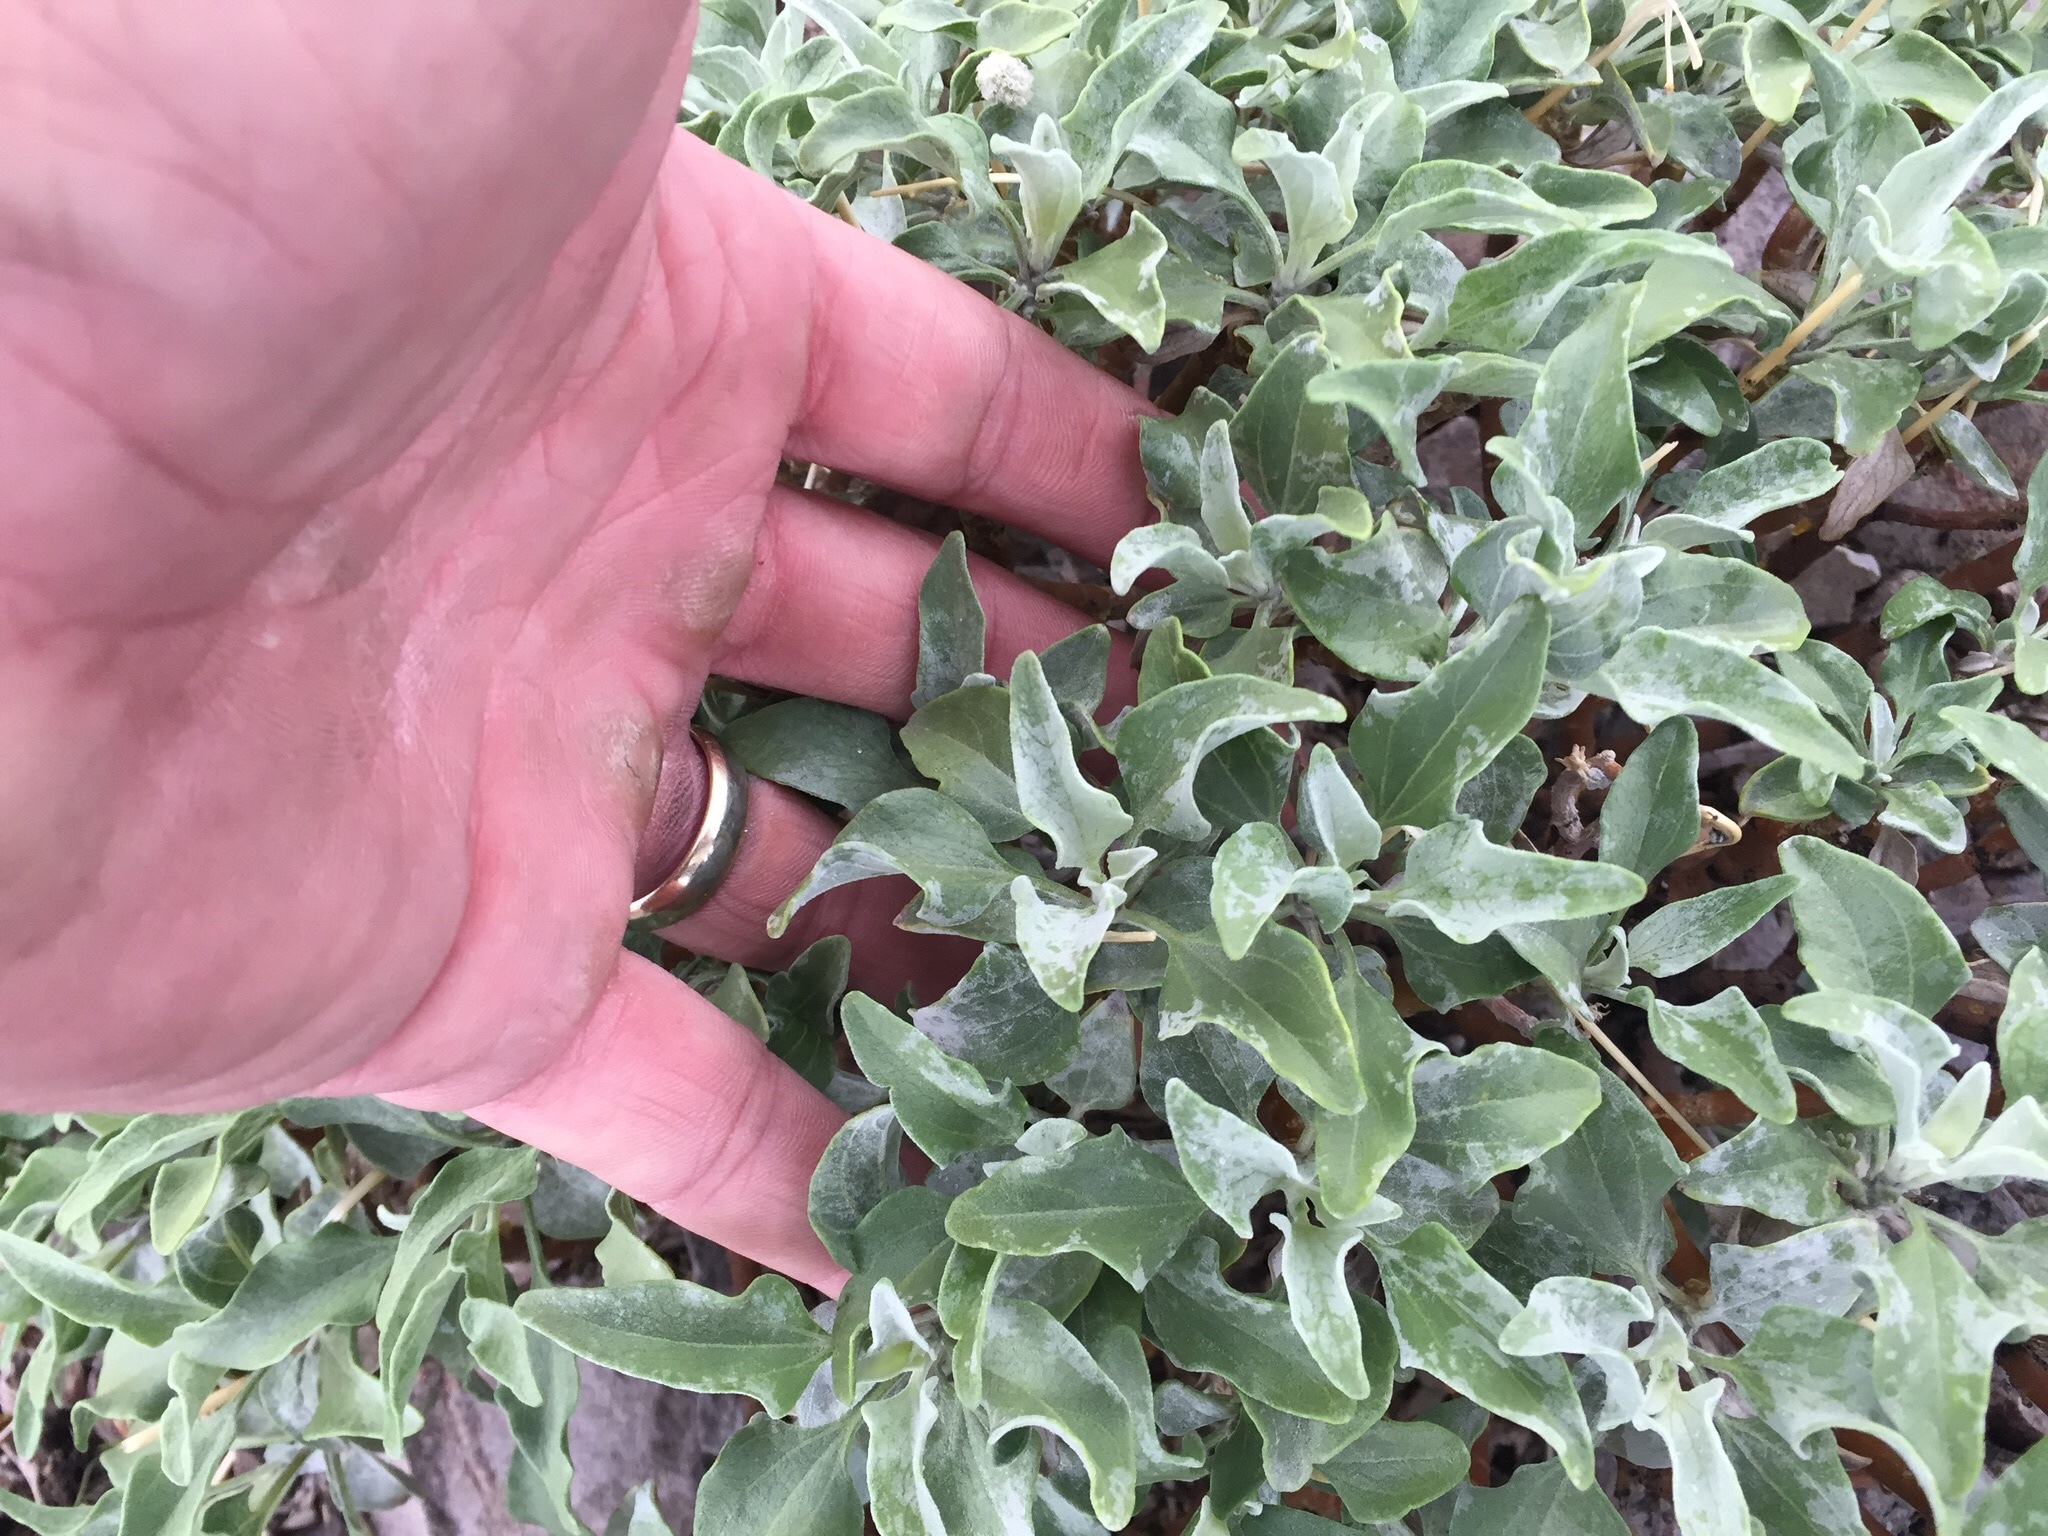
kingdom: Plantae
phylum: Tracheophyta
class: Magnoliopsida
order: Asterales
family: Asteraceae
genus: Encelia
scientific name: Encelia farinosa
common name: Brittlebush
